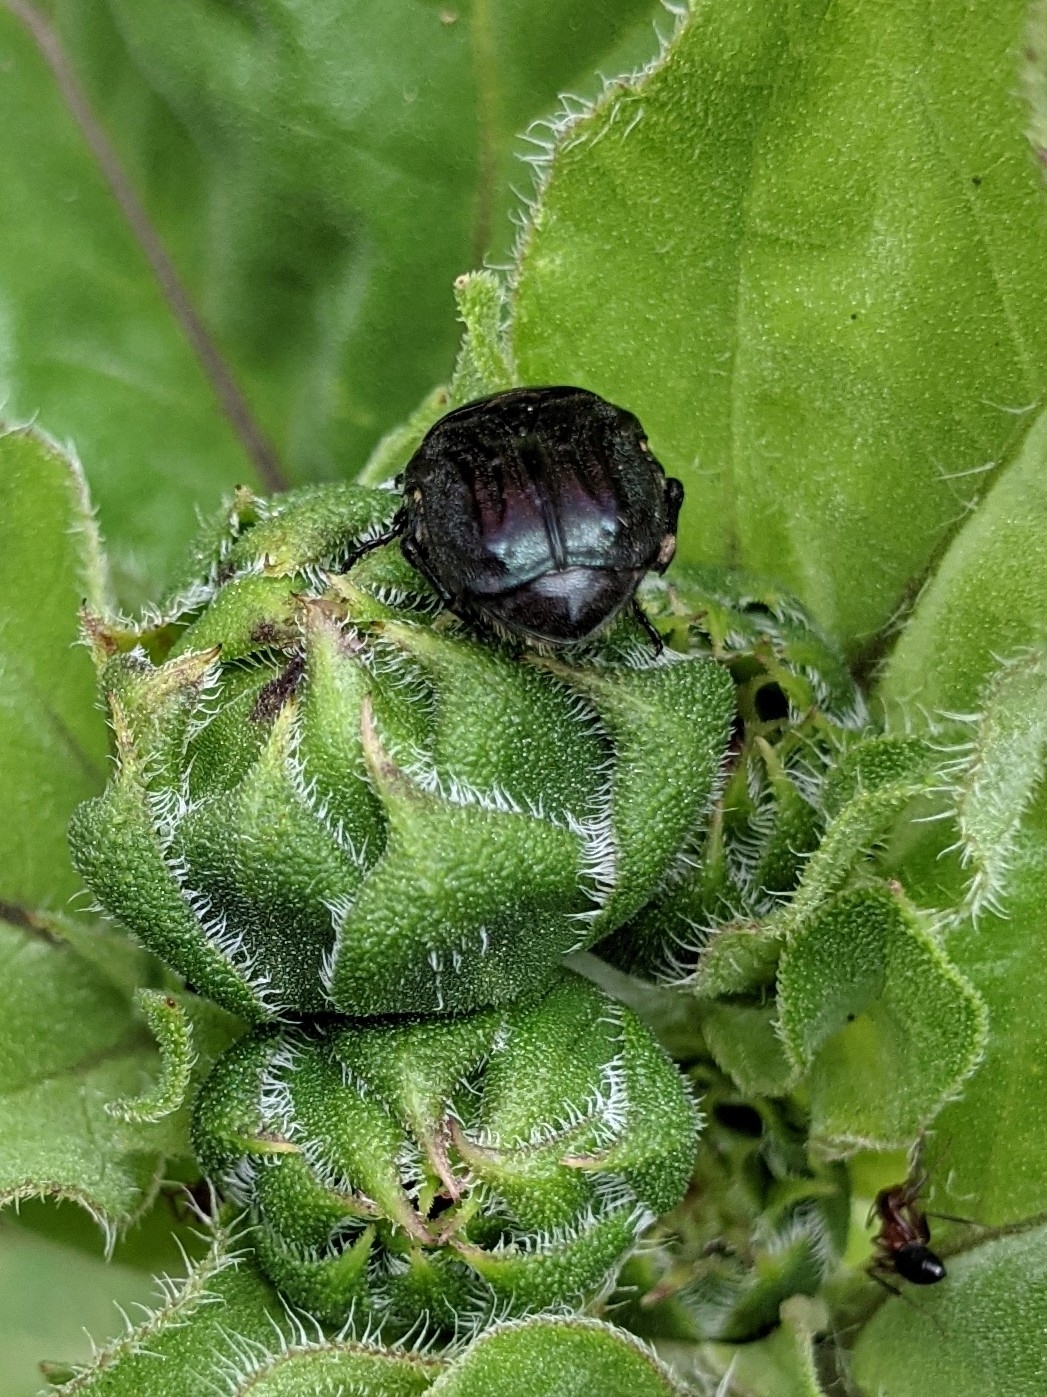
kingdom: Animalia
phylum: Arthropoda
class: Insecta
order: Coleoptera
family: Scarabaeidae
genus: Euphoria
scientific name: Euphoria sepulcralis
